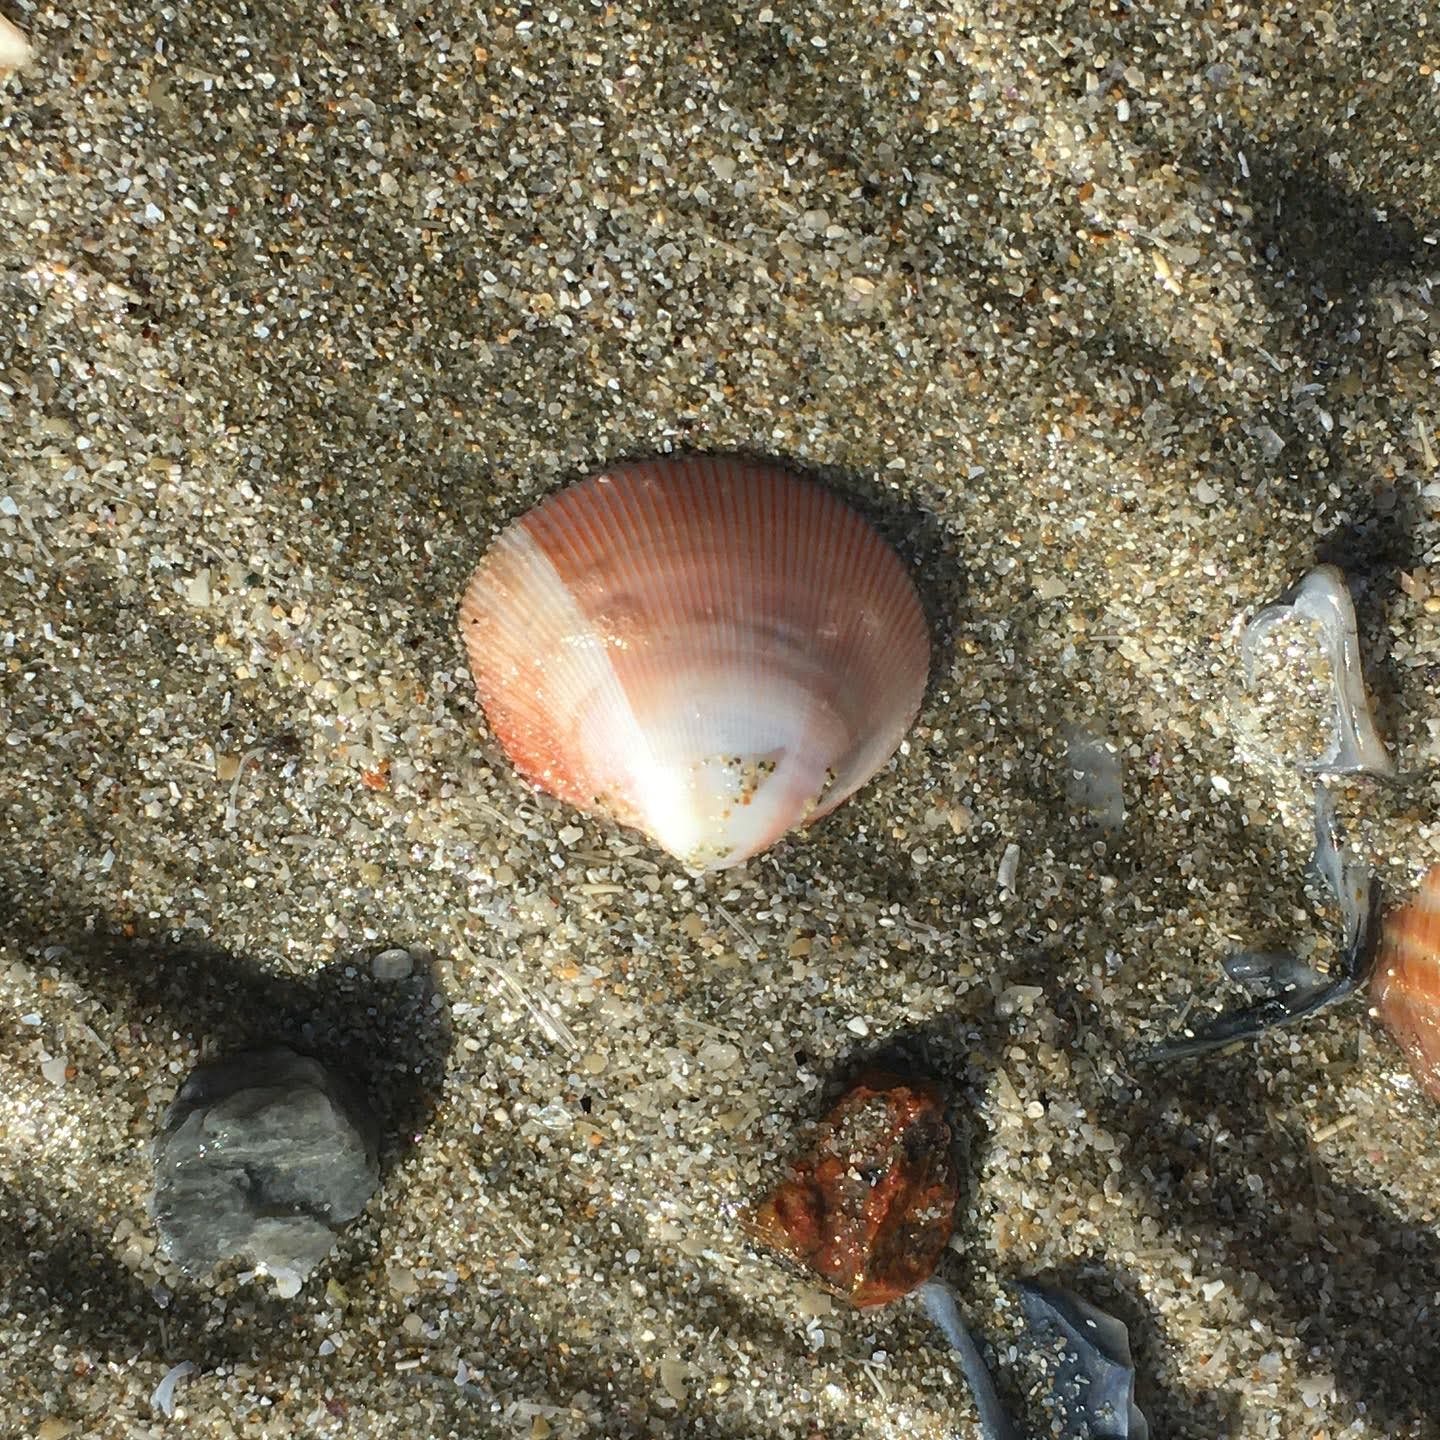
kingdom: Animalia
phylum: Mollusca
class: Bivalvia
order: Cardiida
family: Cardiidae
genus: Pratulum
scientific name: Pratulum pulchellum
